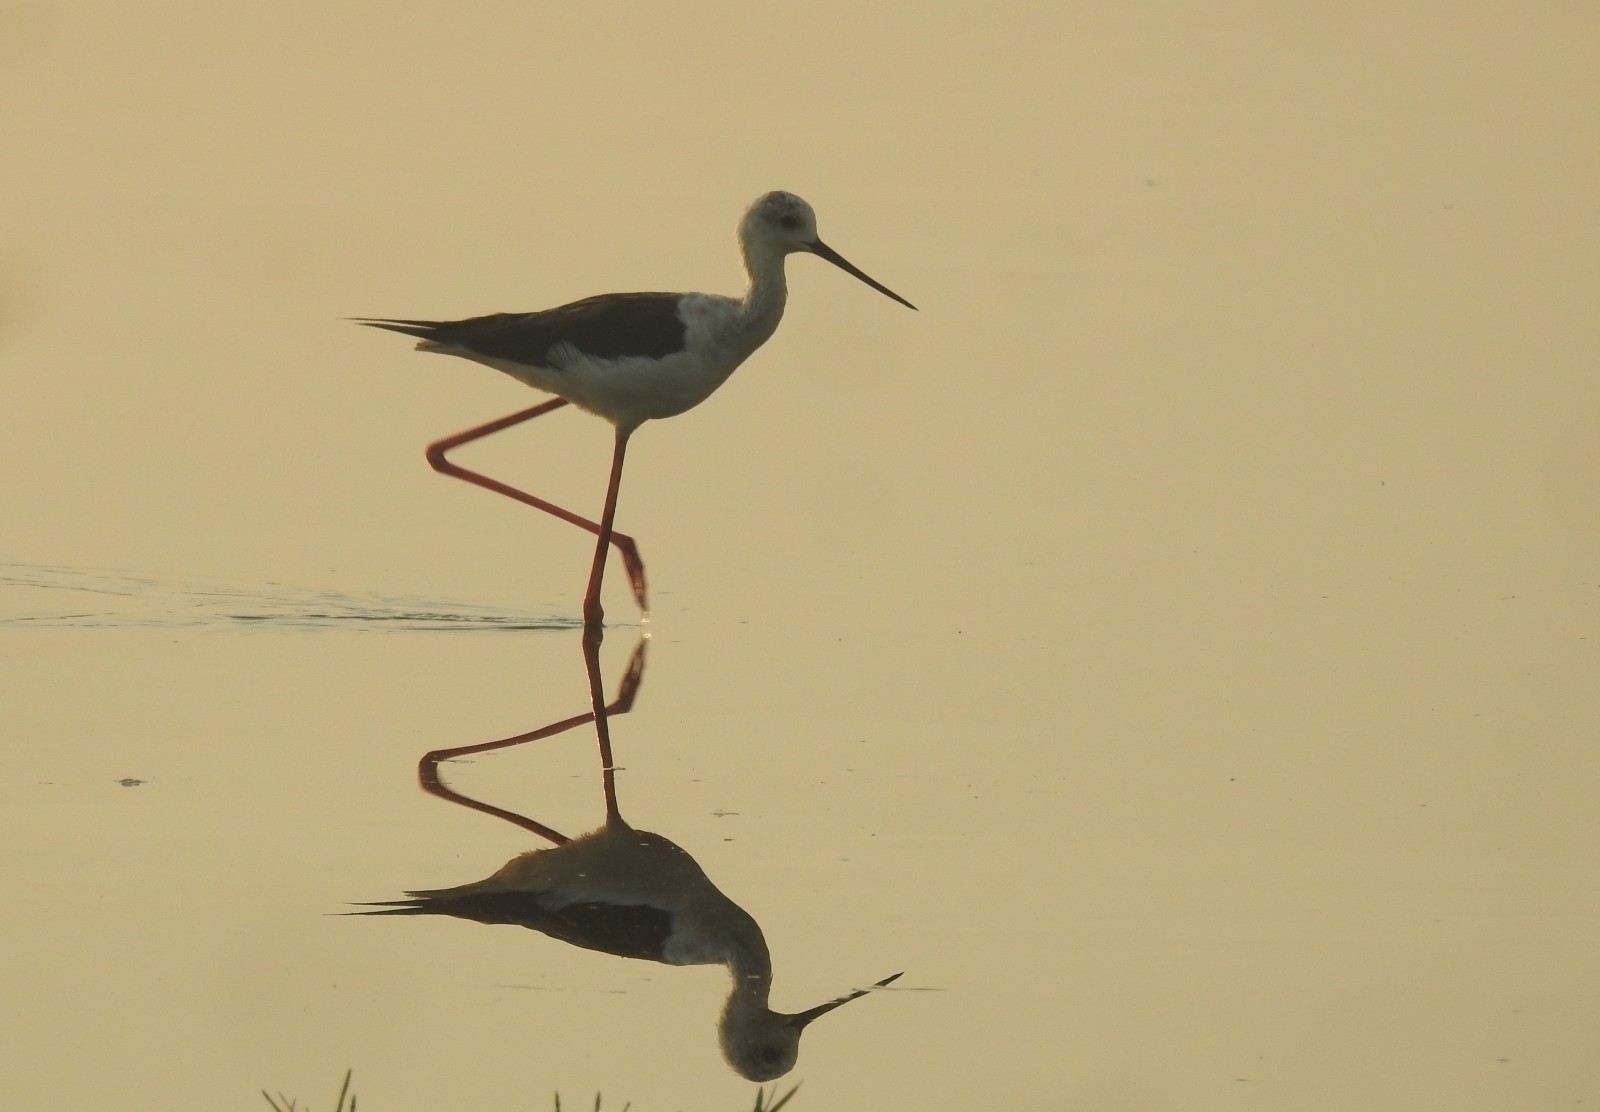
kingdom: Animalia
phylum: Chordata
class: Aves
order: Charadriiformes
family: Recurvirostridae
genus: Himantopus
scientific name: Himantopus himantopus
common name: Black-winged stilt
